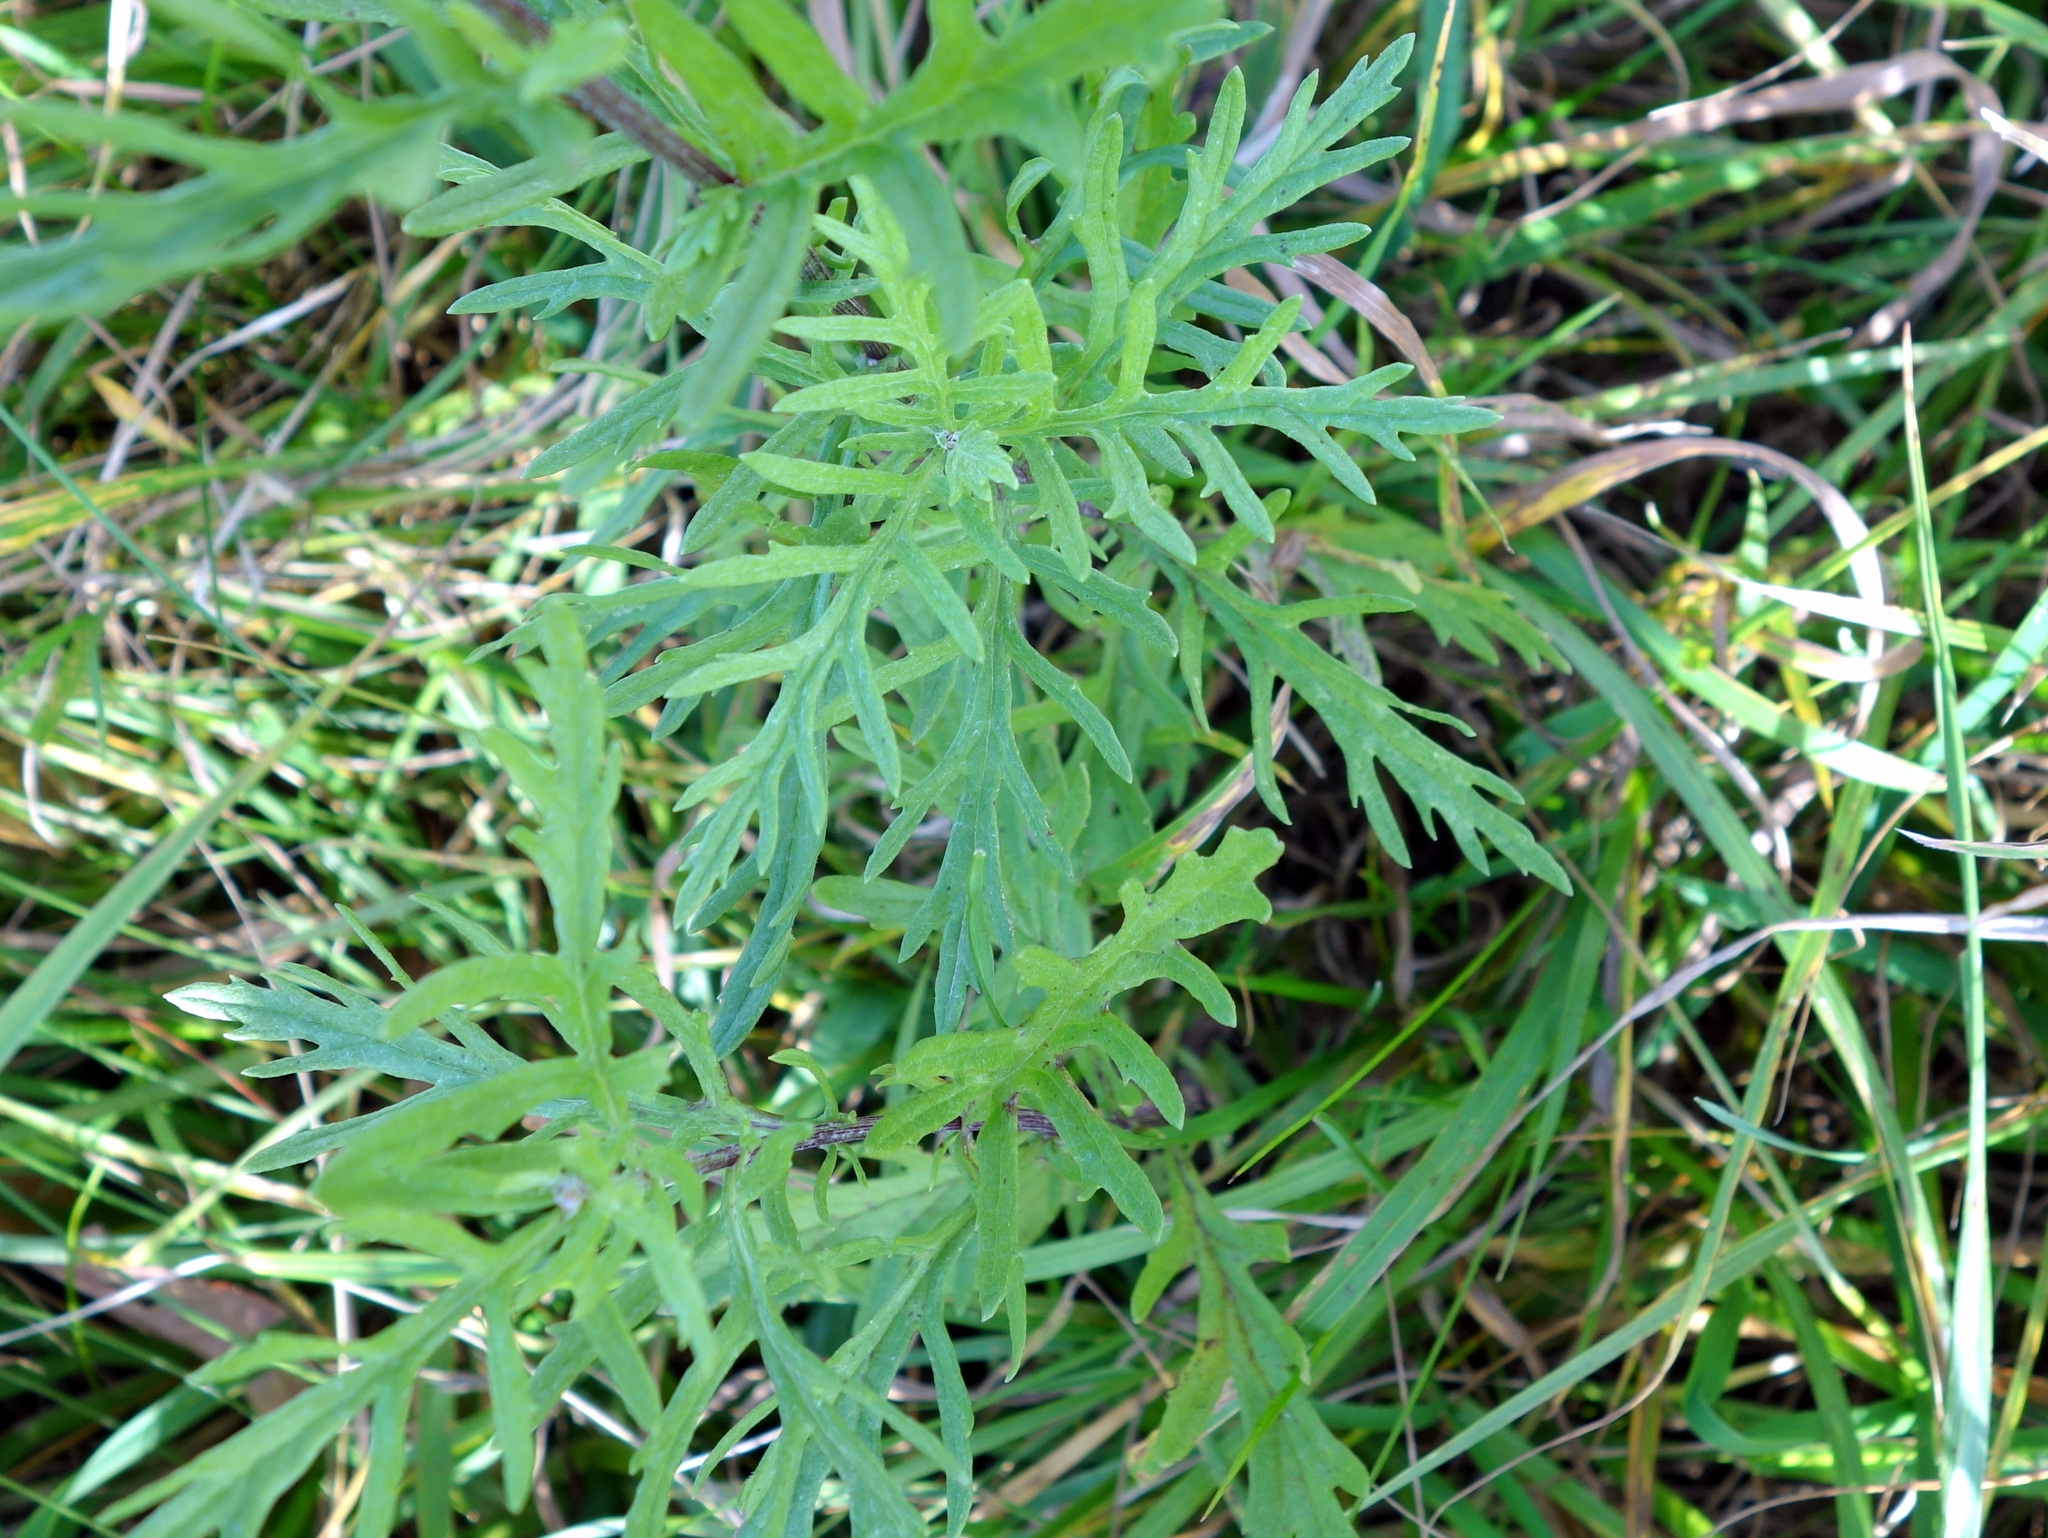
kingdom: Plantae
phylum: Tracheophyta
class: Magnoliopsida
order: Asterales
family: Asteraceae
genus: Jacobaea
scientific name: Jacobaea erucifolia
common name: Hoary ragwort
